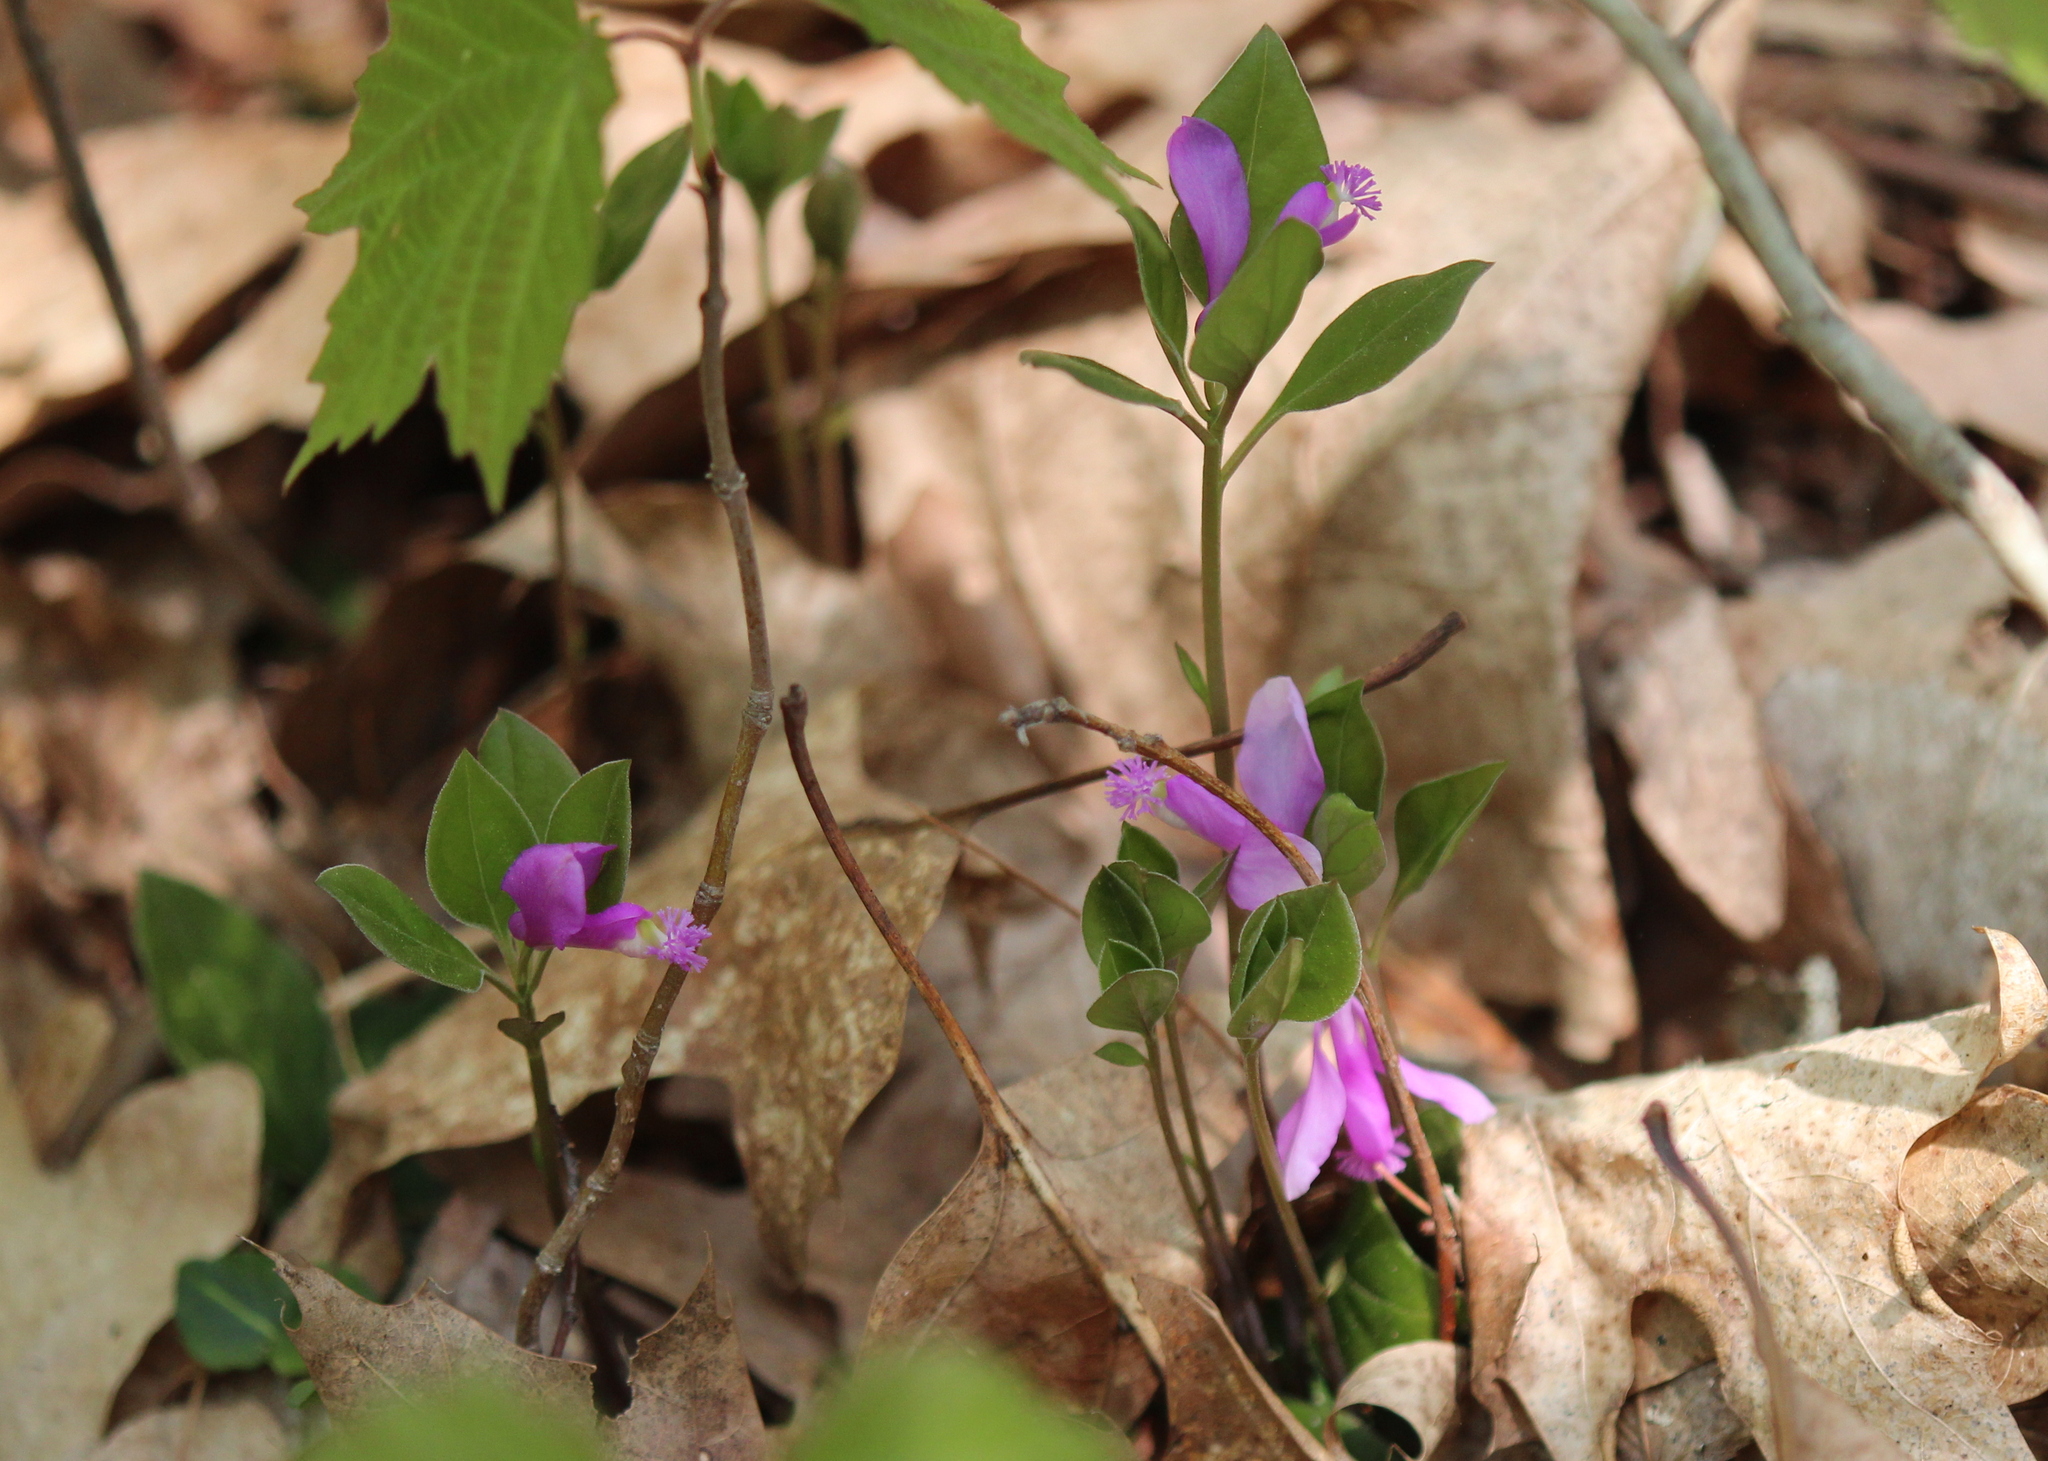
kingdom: Plantae
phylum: Tracheophyta
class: Magnoliopsida
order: Fabales
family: Polygalaceae
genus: Polygaloides
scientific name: Polygaloides paucifolia
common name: Bird-on-the-wing
